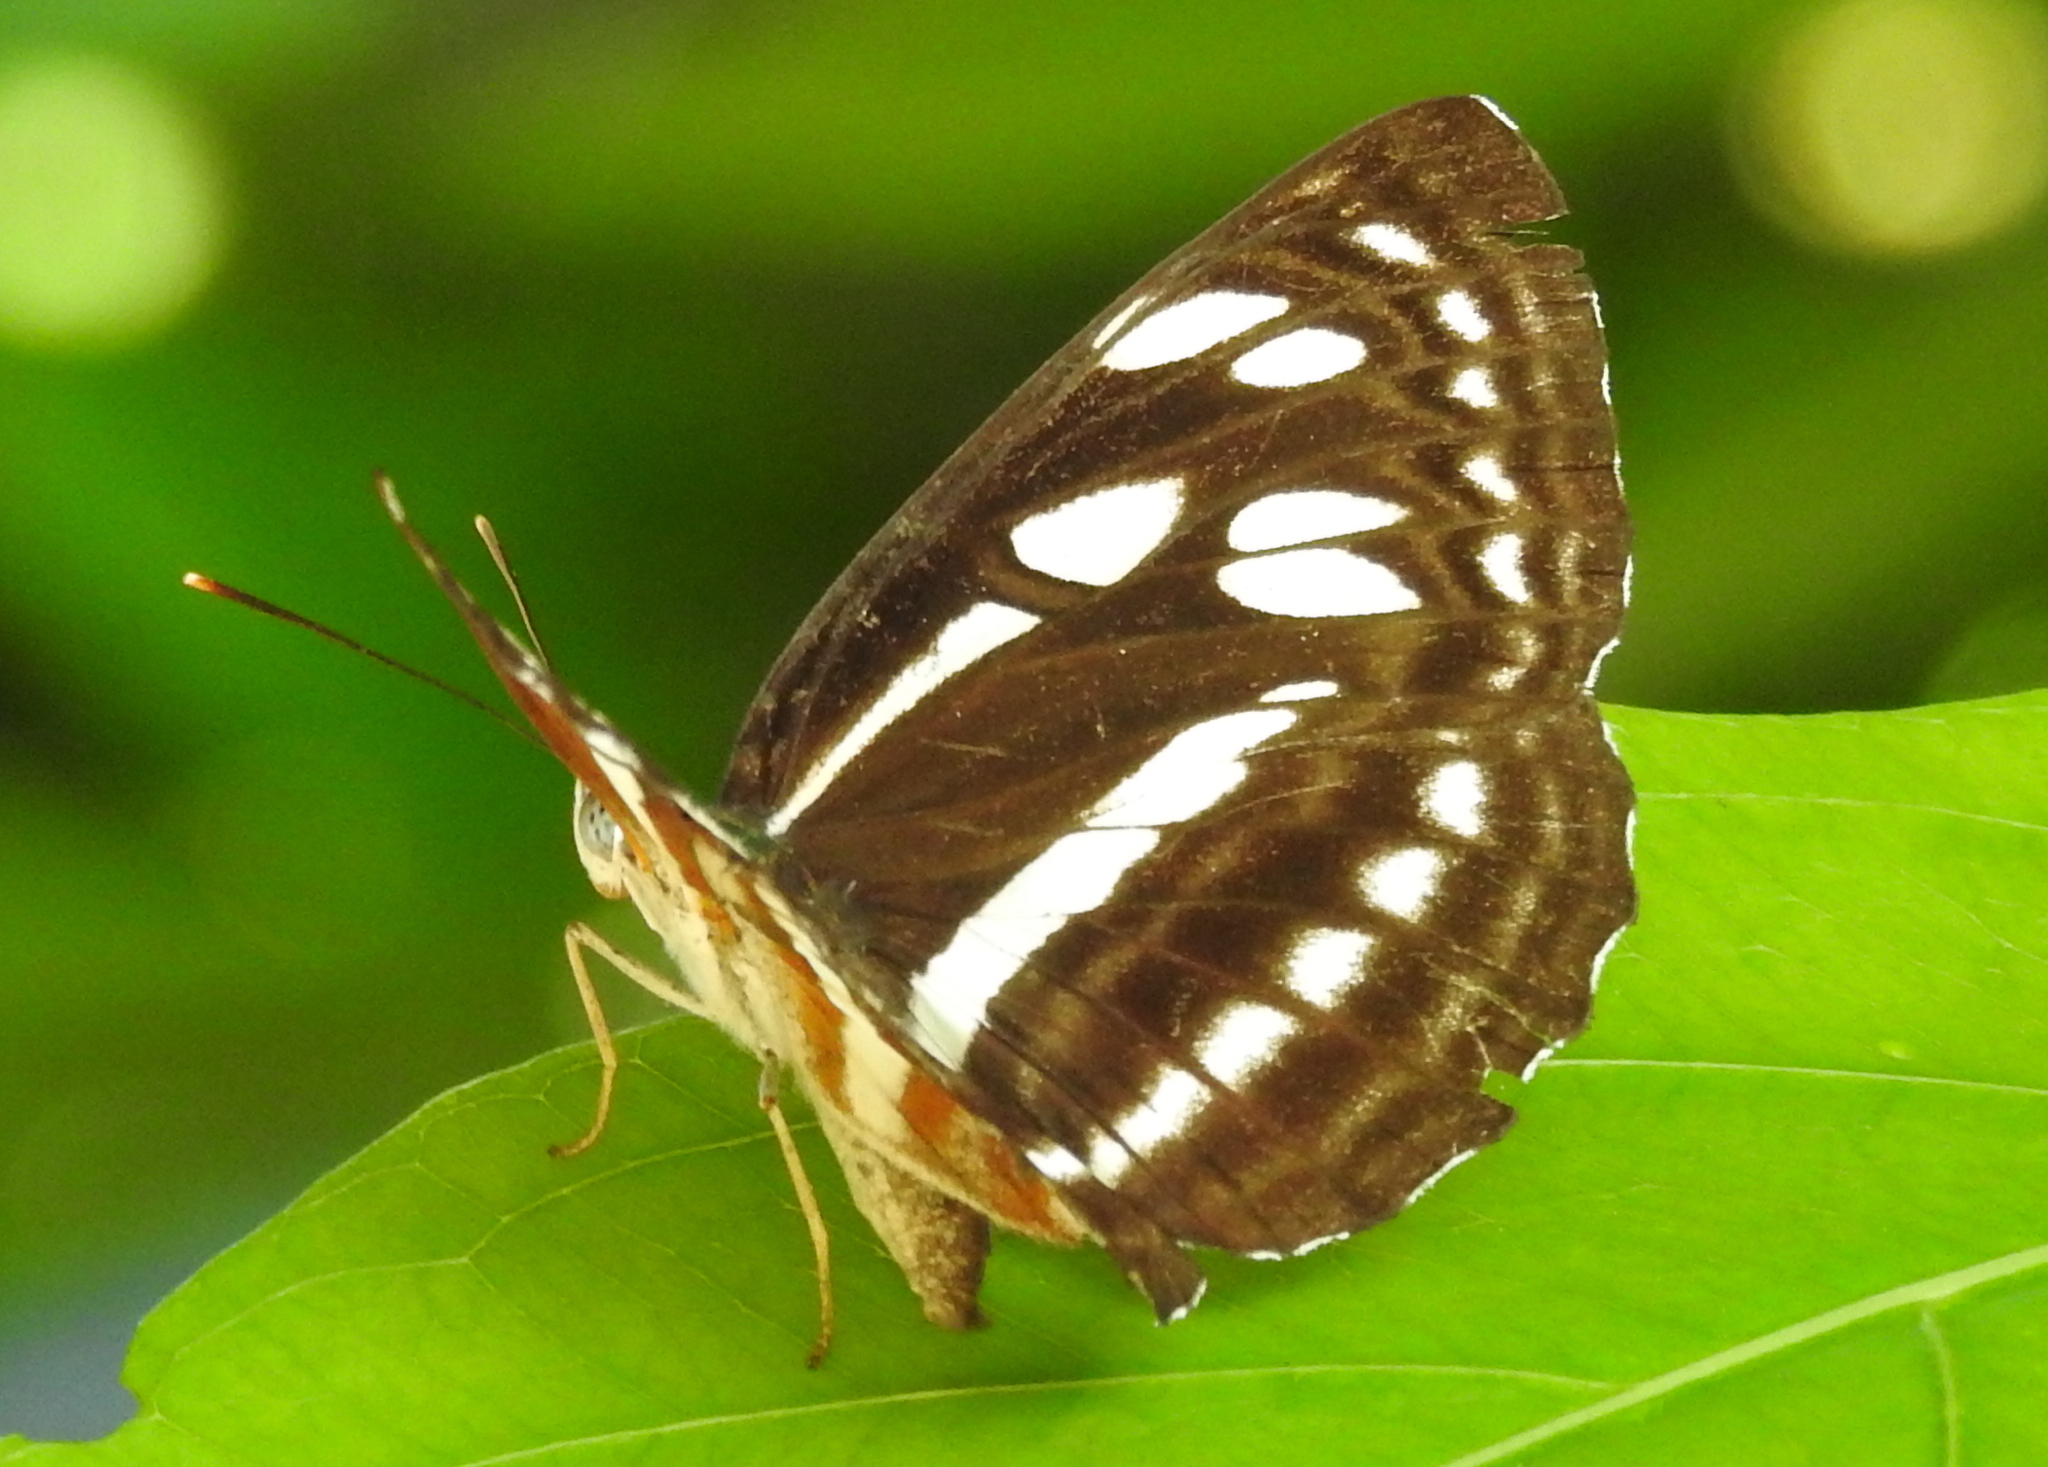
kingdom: Animalia
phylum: Arthropoda
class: Insecta
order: Lepidoptera
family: Nymphalidae
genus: Phaedyma
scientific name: Phaedyma columella
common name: Short banded sailer
